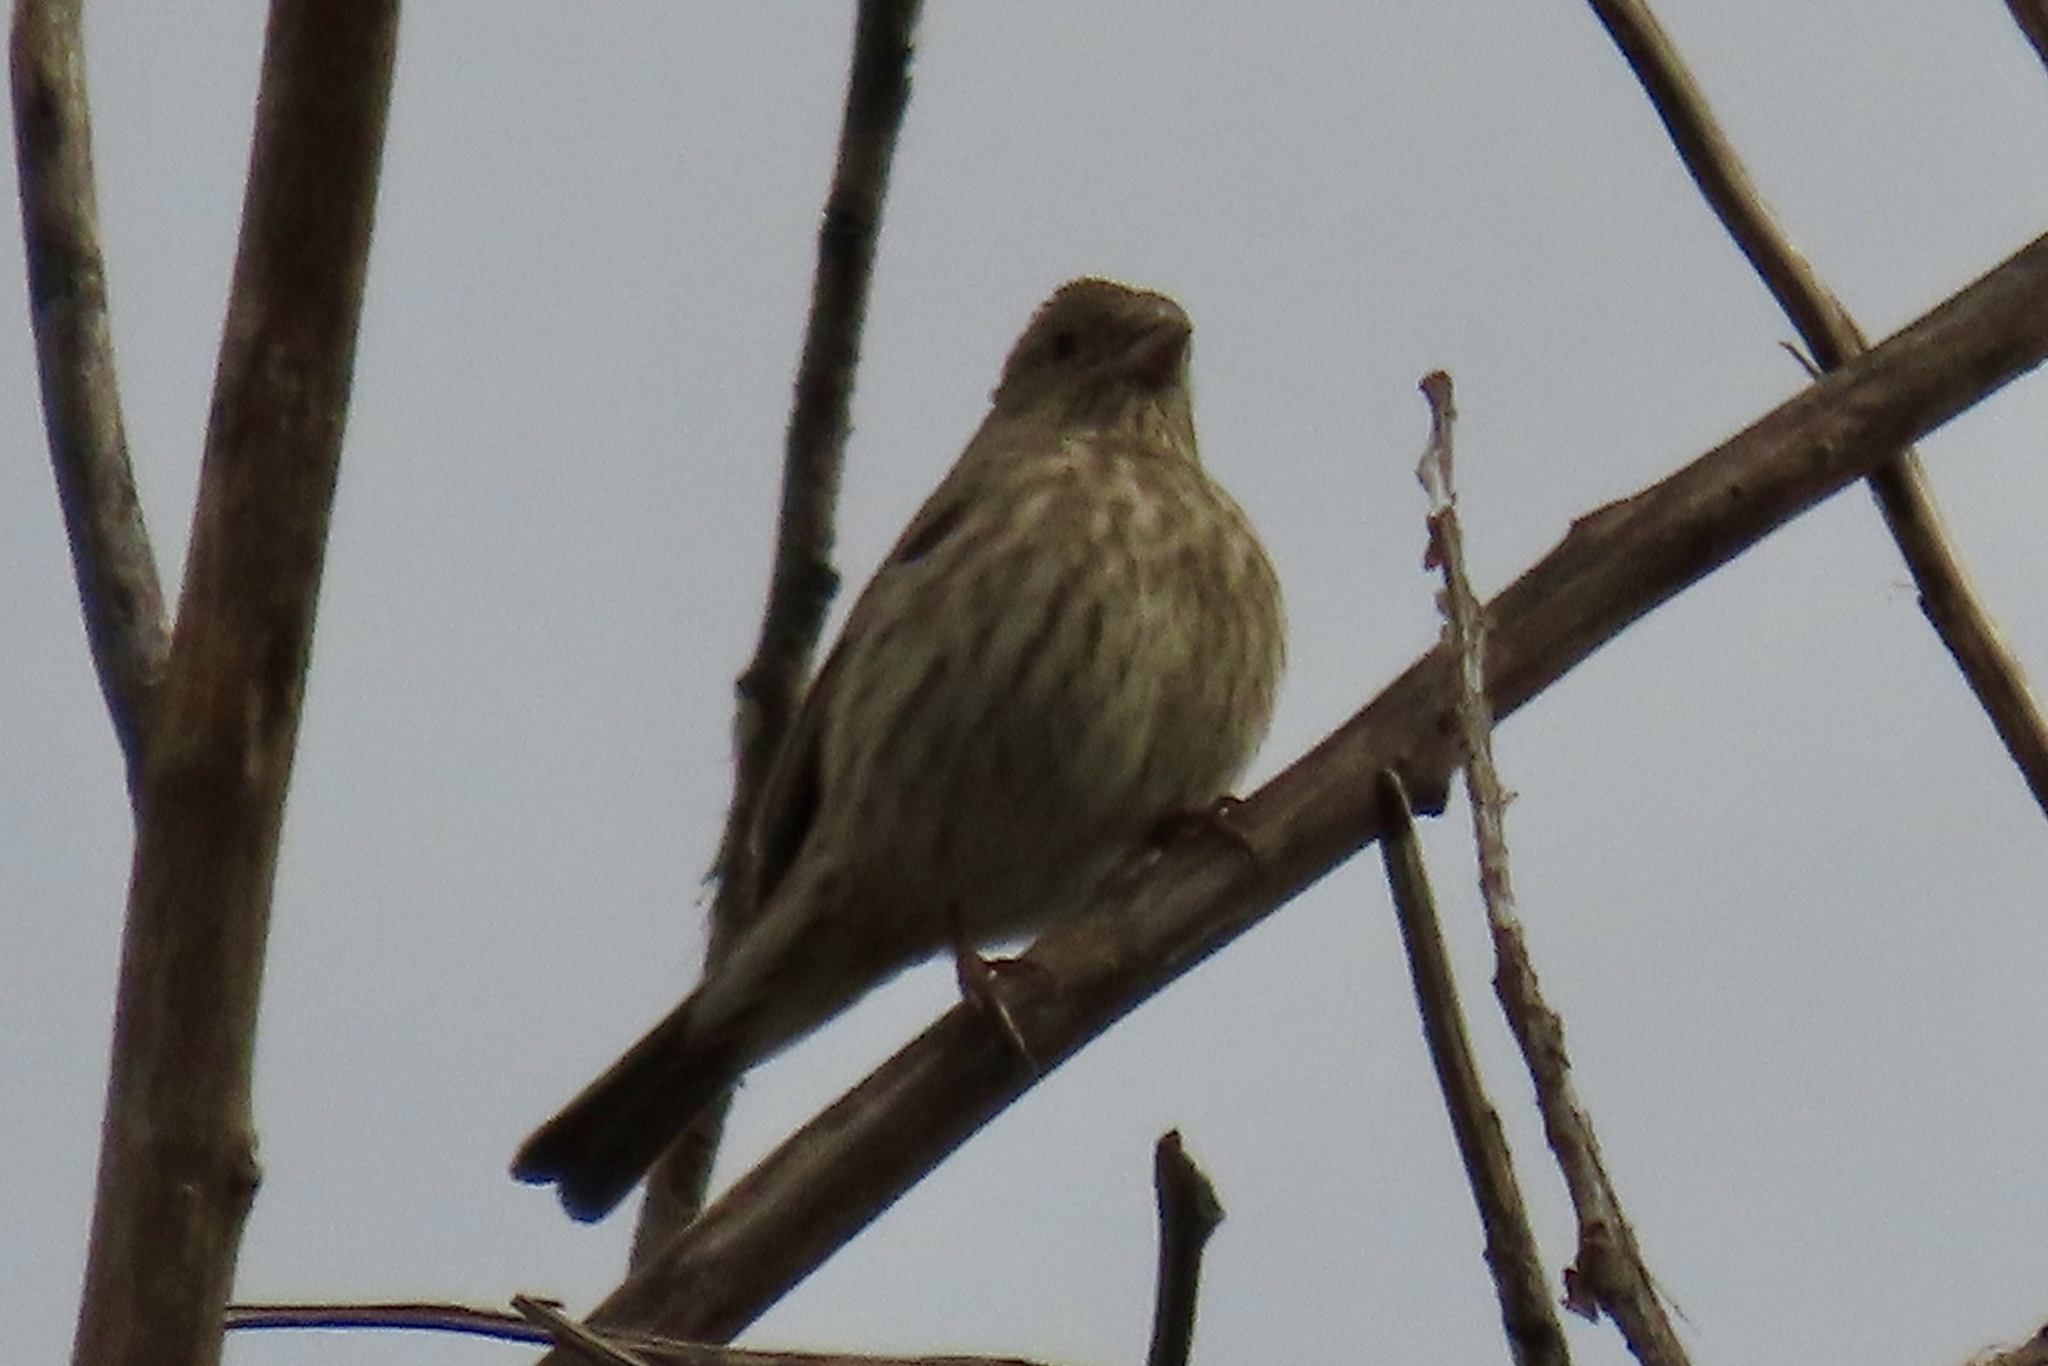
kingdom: Animalia
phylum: Chordata
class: Aves
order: Passeriformes
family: Fringillidae
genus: Haemorhous
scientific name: Haemorhous mexicanus
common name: House finch
